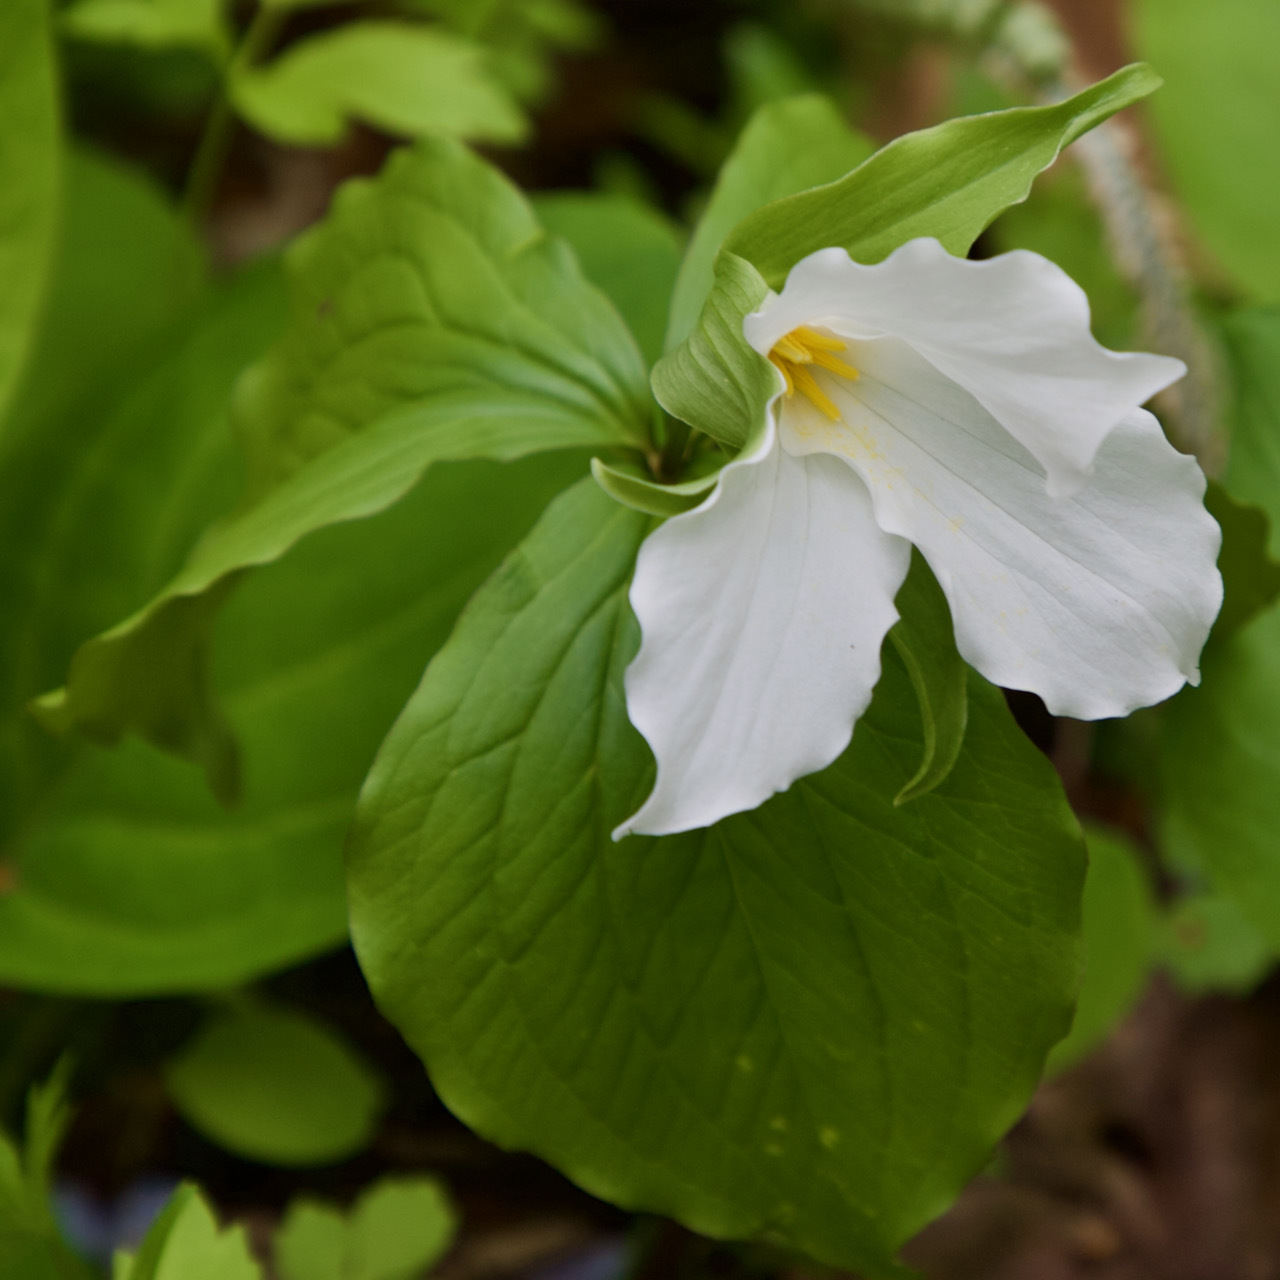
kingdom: Plantae
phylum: Tracheophyta
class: Liliopsida
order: Liliales
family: Melanthiaceae
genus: Trillium
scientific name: Trillium grandiflorum
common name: Great white trillium
